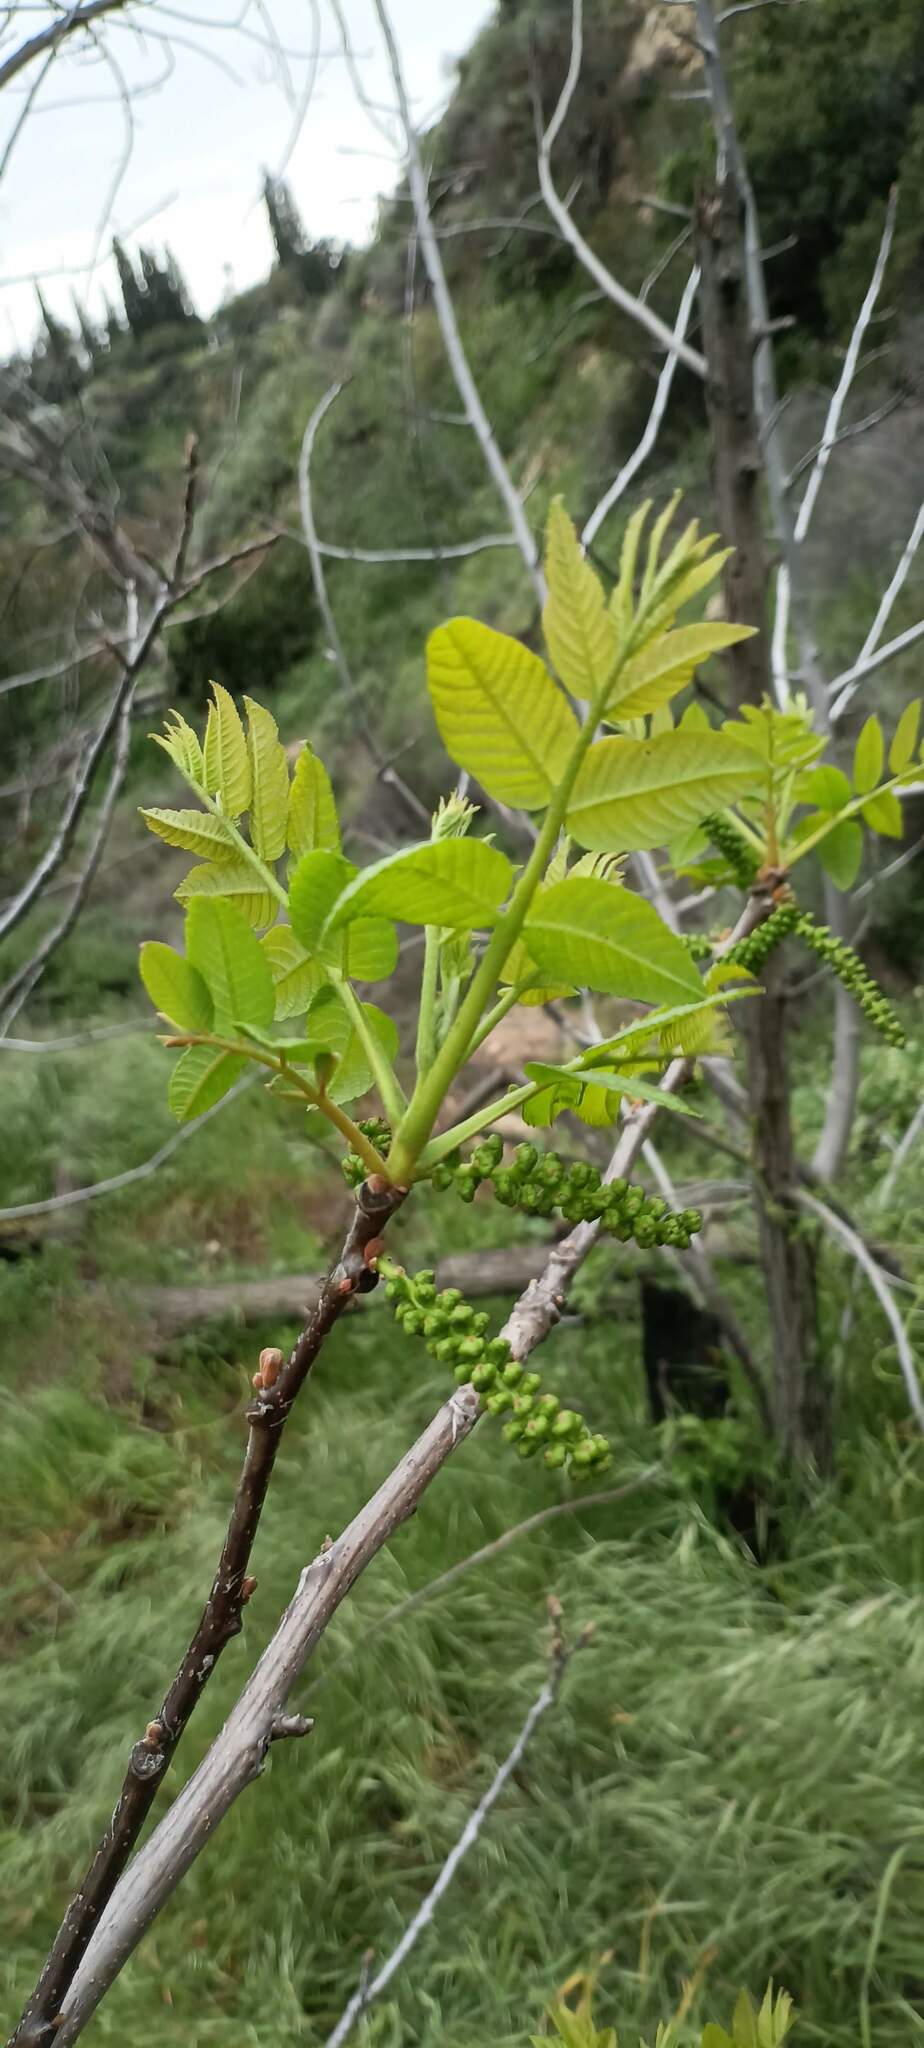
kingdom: Plantae
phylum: Tracheophyta
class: Magnoliopsida
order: Fagales
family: Juglandaceae
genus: Juglans
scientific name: Juglans californica
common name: Southern california black walnut
